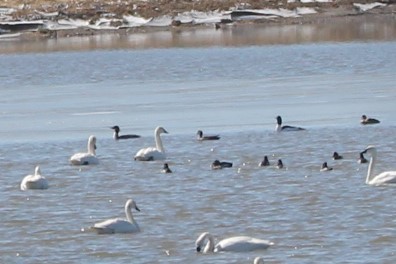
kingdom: Animalia
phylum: Chordata
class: Aves
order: Anseriformes
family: Anatidae
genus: Mergus
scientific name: Mergus merganser
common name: Common merganser
